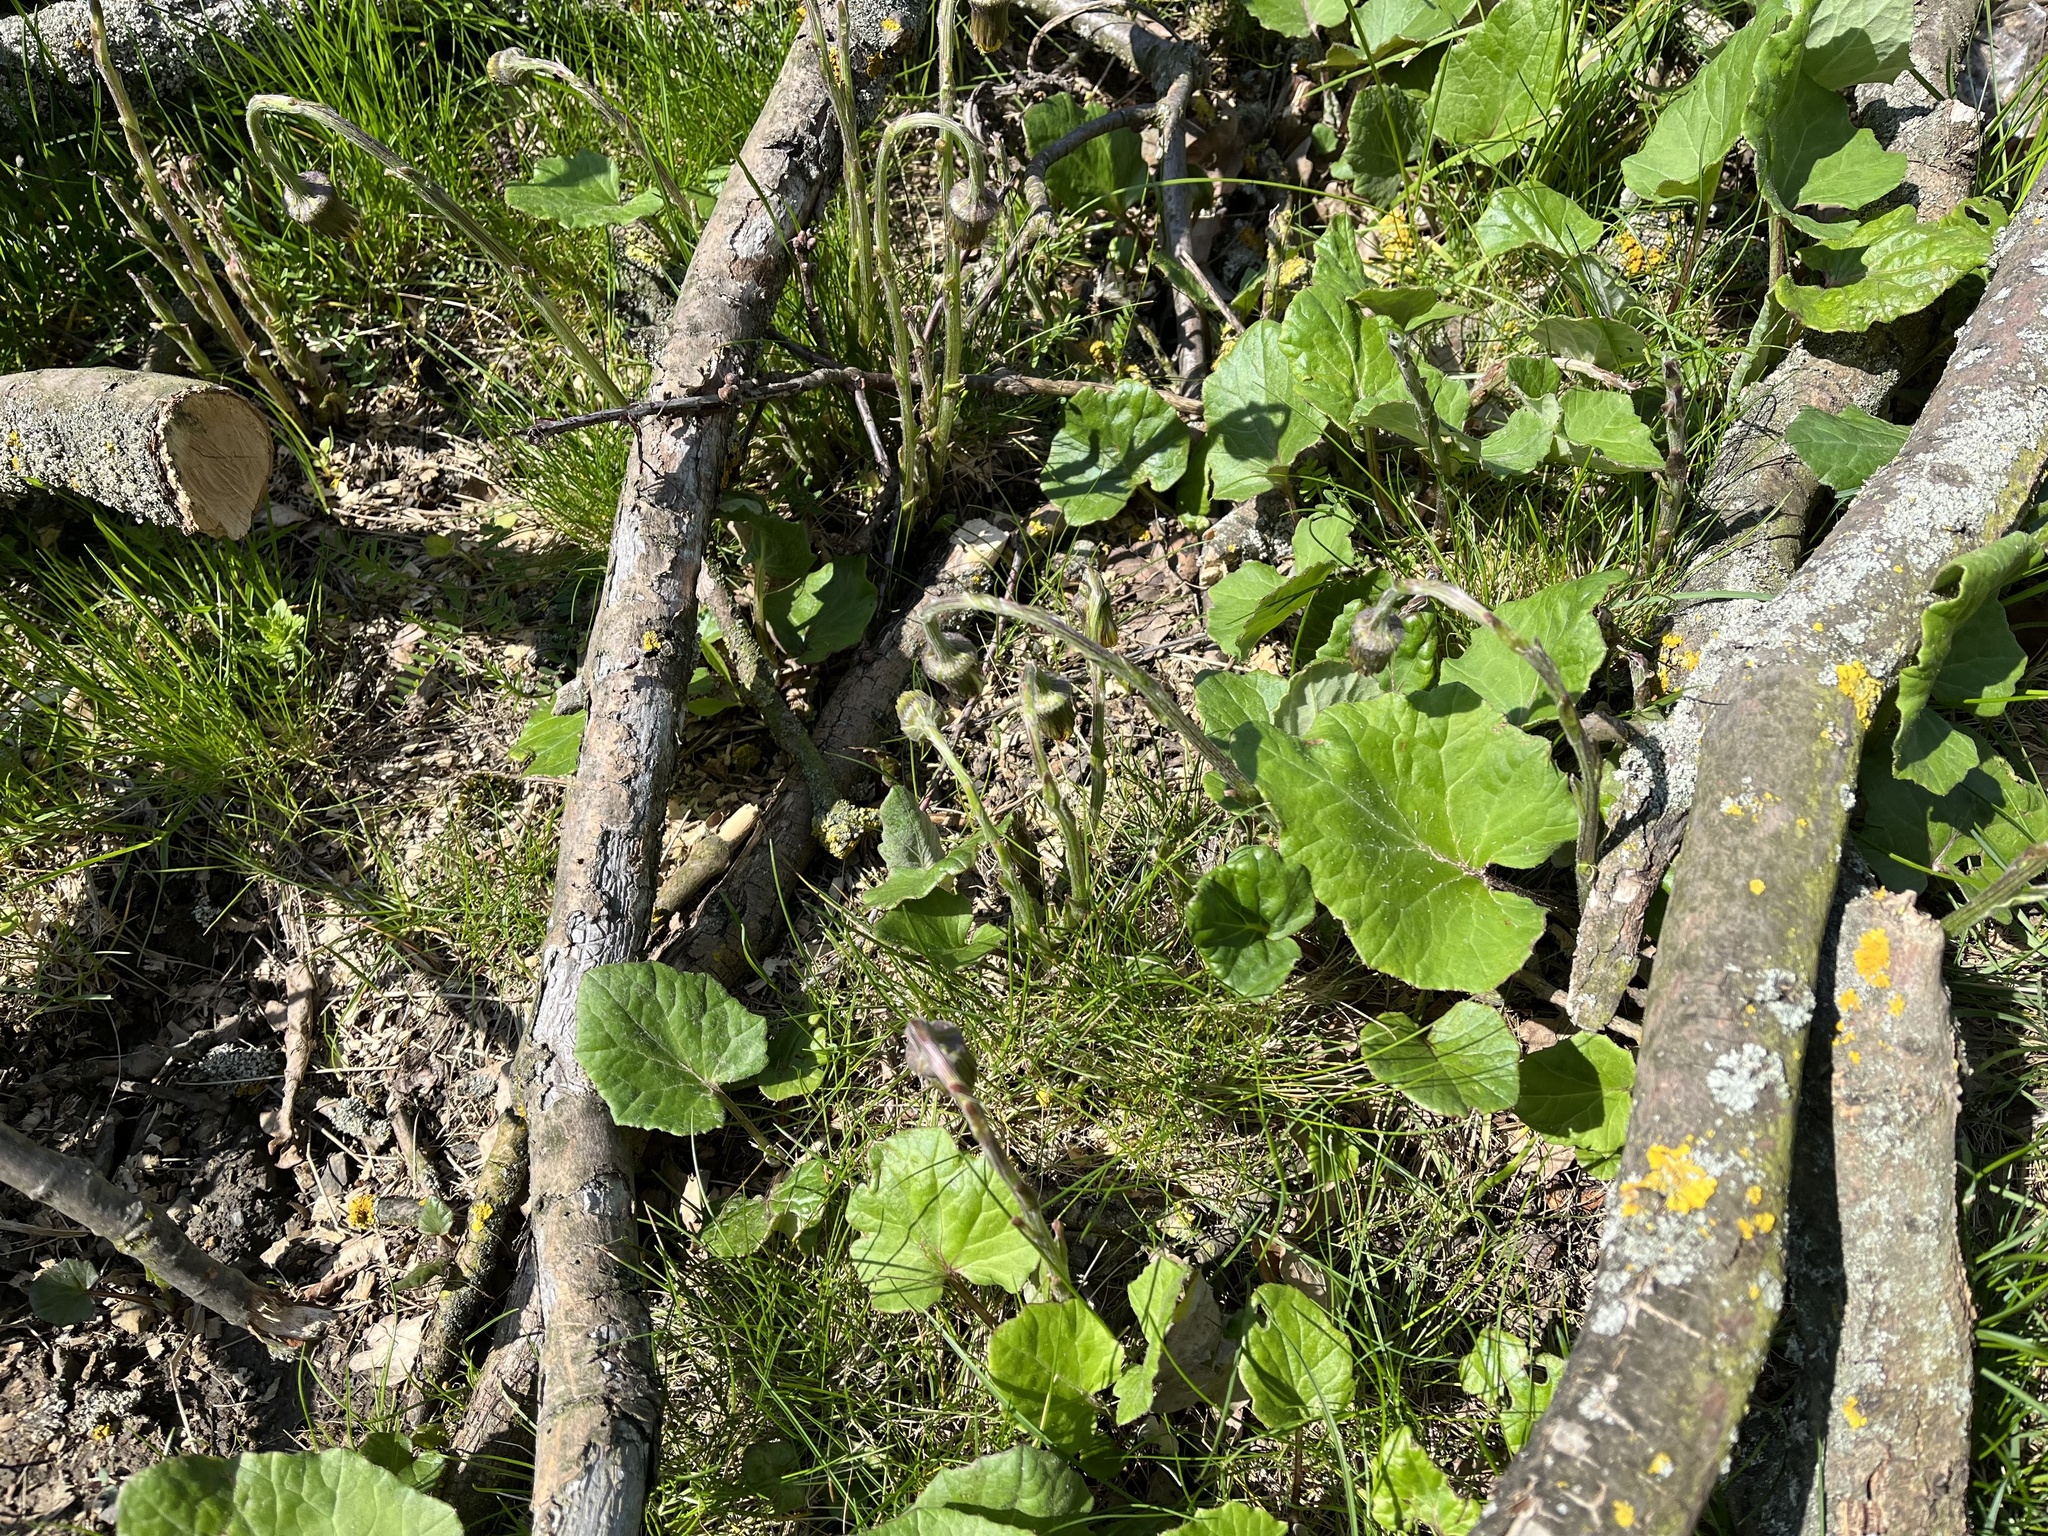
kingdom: Plantae
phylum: Tracheophyta
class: Magnoliopsida
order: Asterales
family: Asteraceae
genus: Tussilago
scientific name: Tussilago farfara
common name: Coltsfoot
